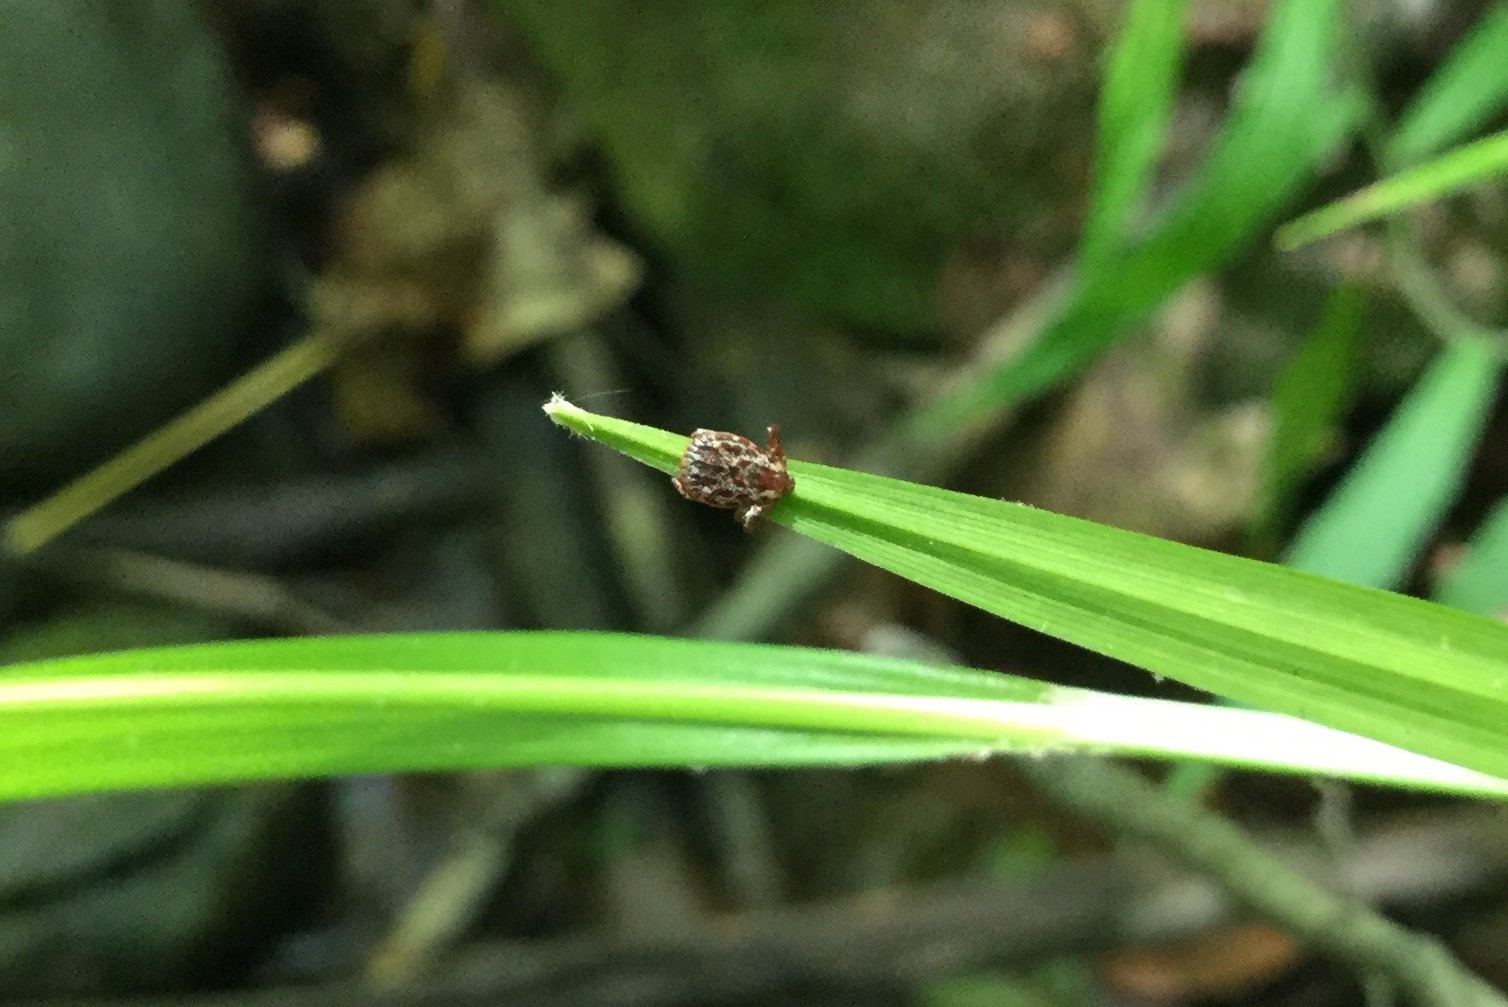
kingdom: Animalia
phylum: Arthropoda
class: Arachnida
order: Ixodida
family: Ixodidae
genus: Dermacentor
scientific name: Dermacentor variabilis
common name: American dog tick
